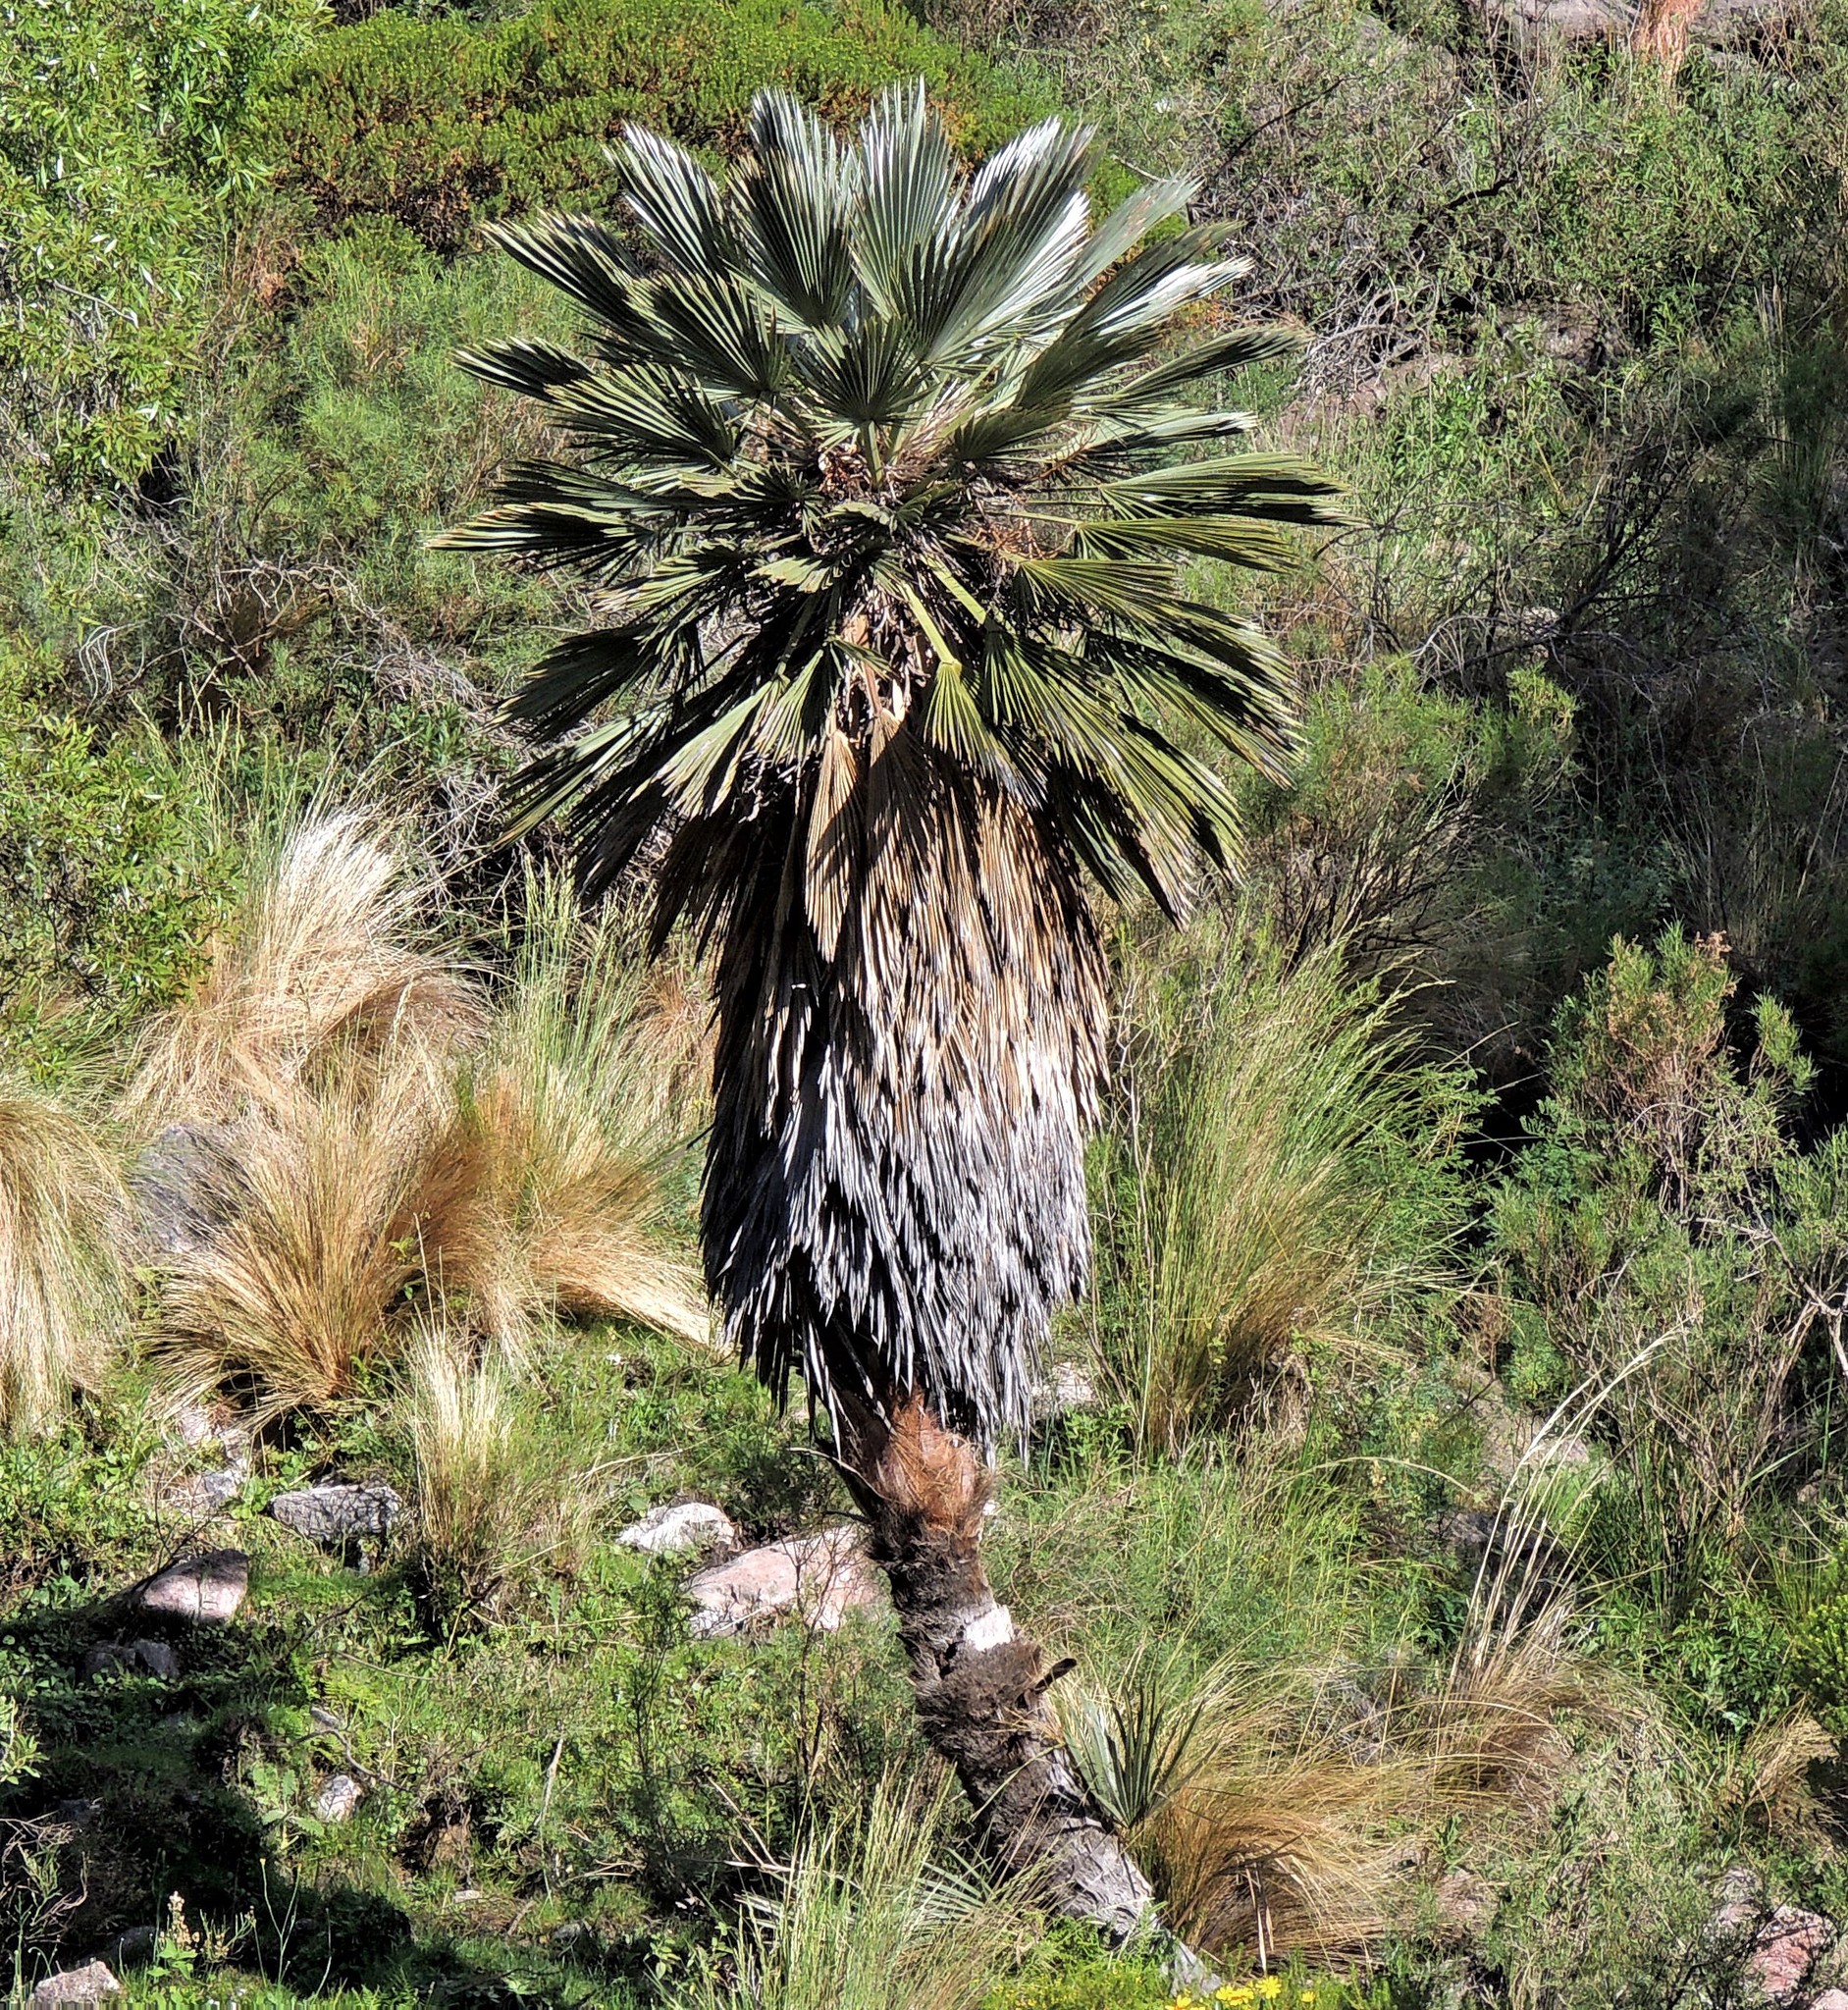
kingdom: Plantae
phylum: Tracheophyta
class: Liliopsida
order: Arecales
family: Arecaceae
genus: Trithrinax
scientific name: Trithrinax campestris
